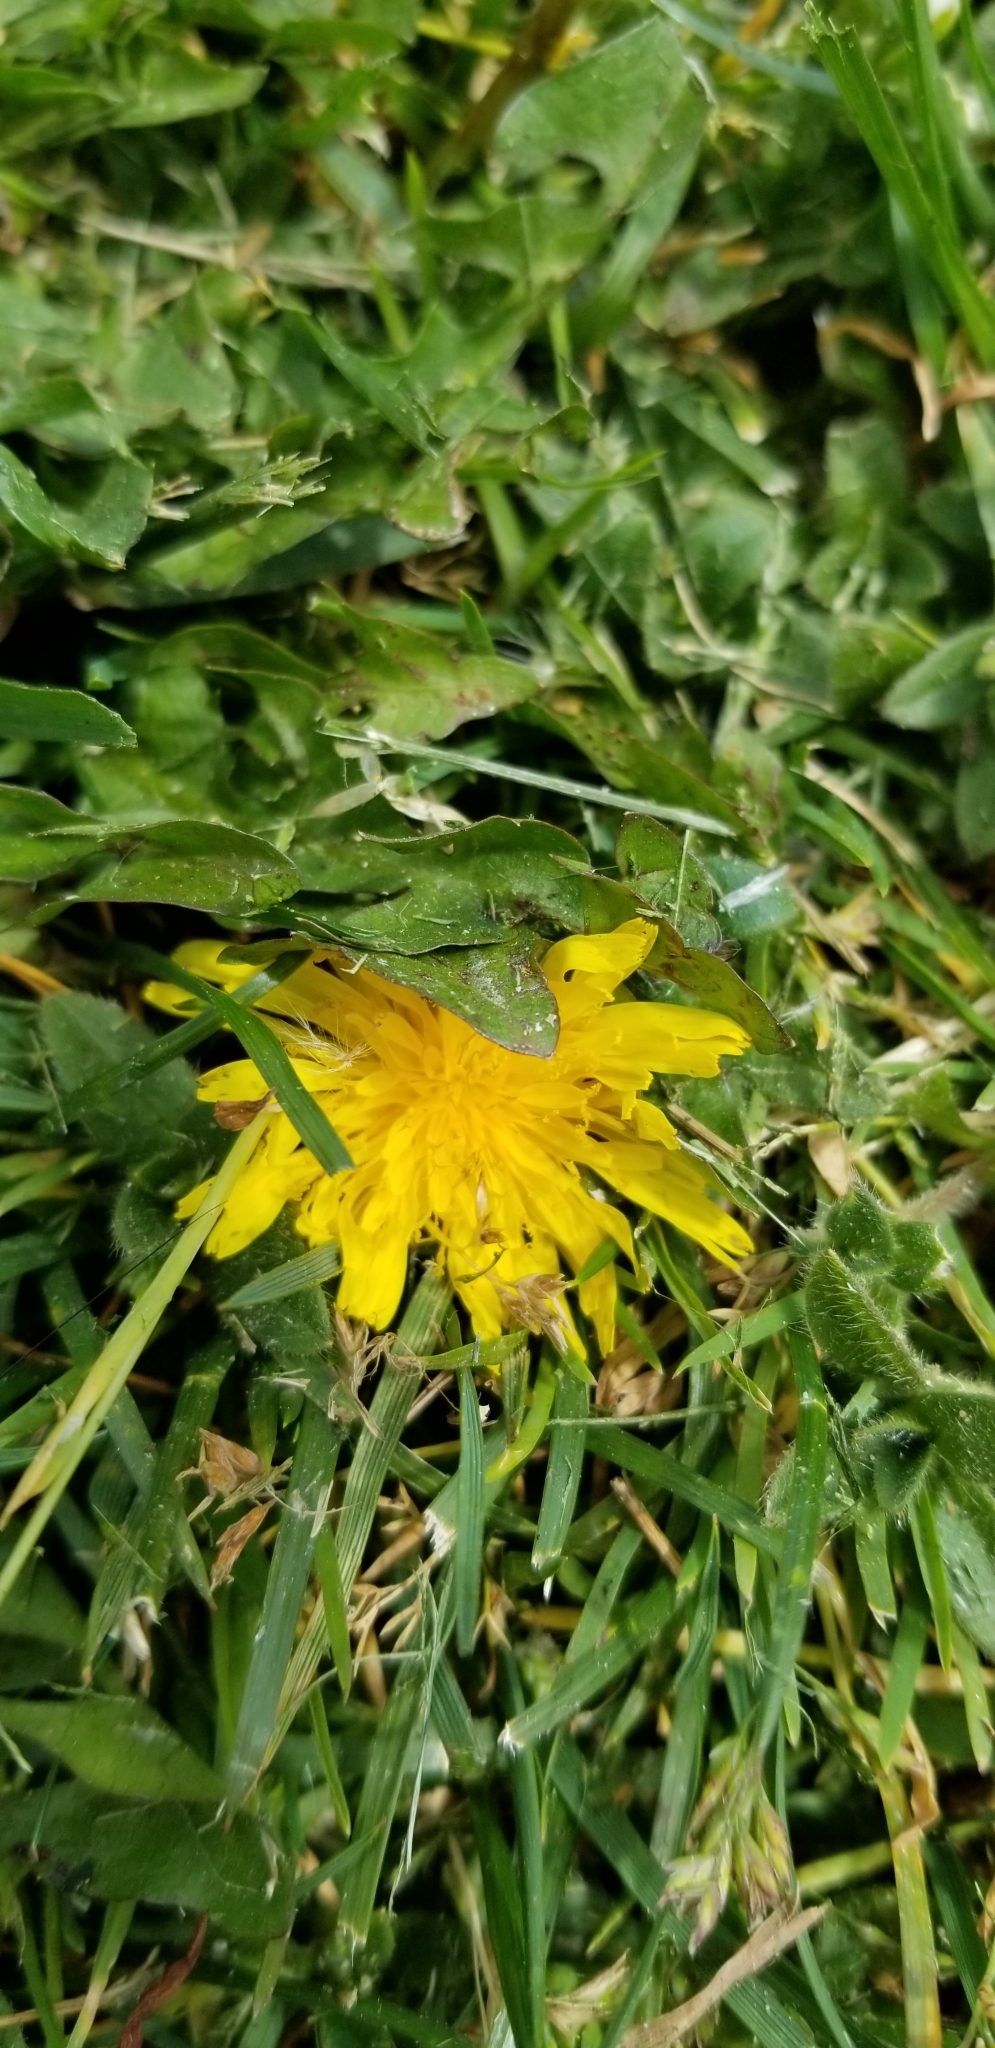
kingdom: Plantae
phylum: Tracheophyta
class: Magnoliopsida
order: Asterales
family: Asteraceae
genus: Taraxacum
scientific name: Taraxacum officinale
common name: Common dandelion
